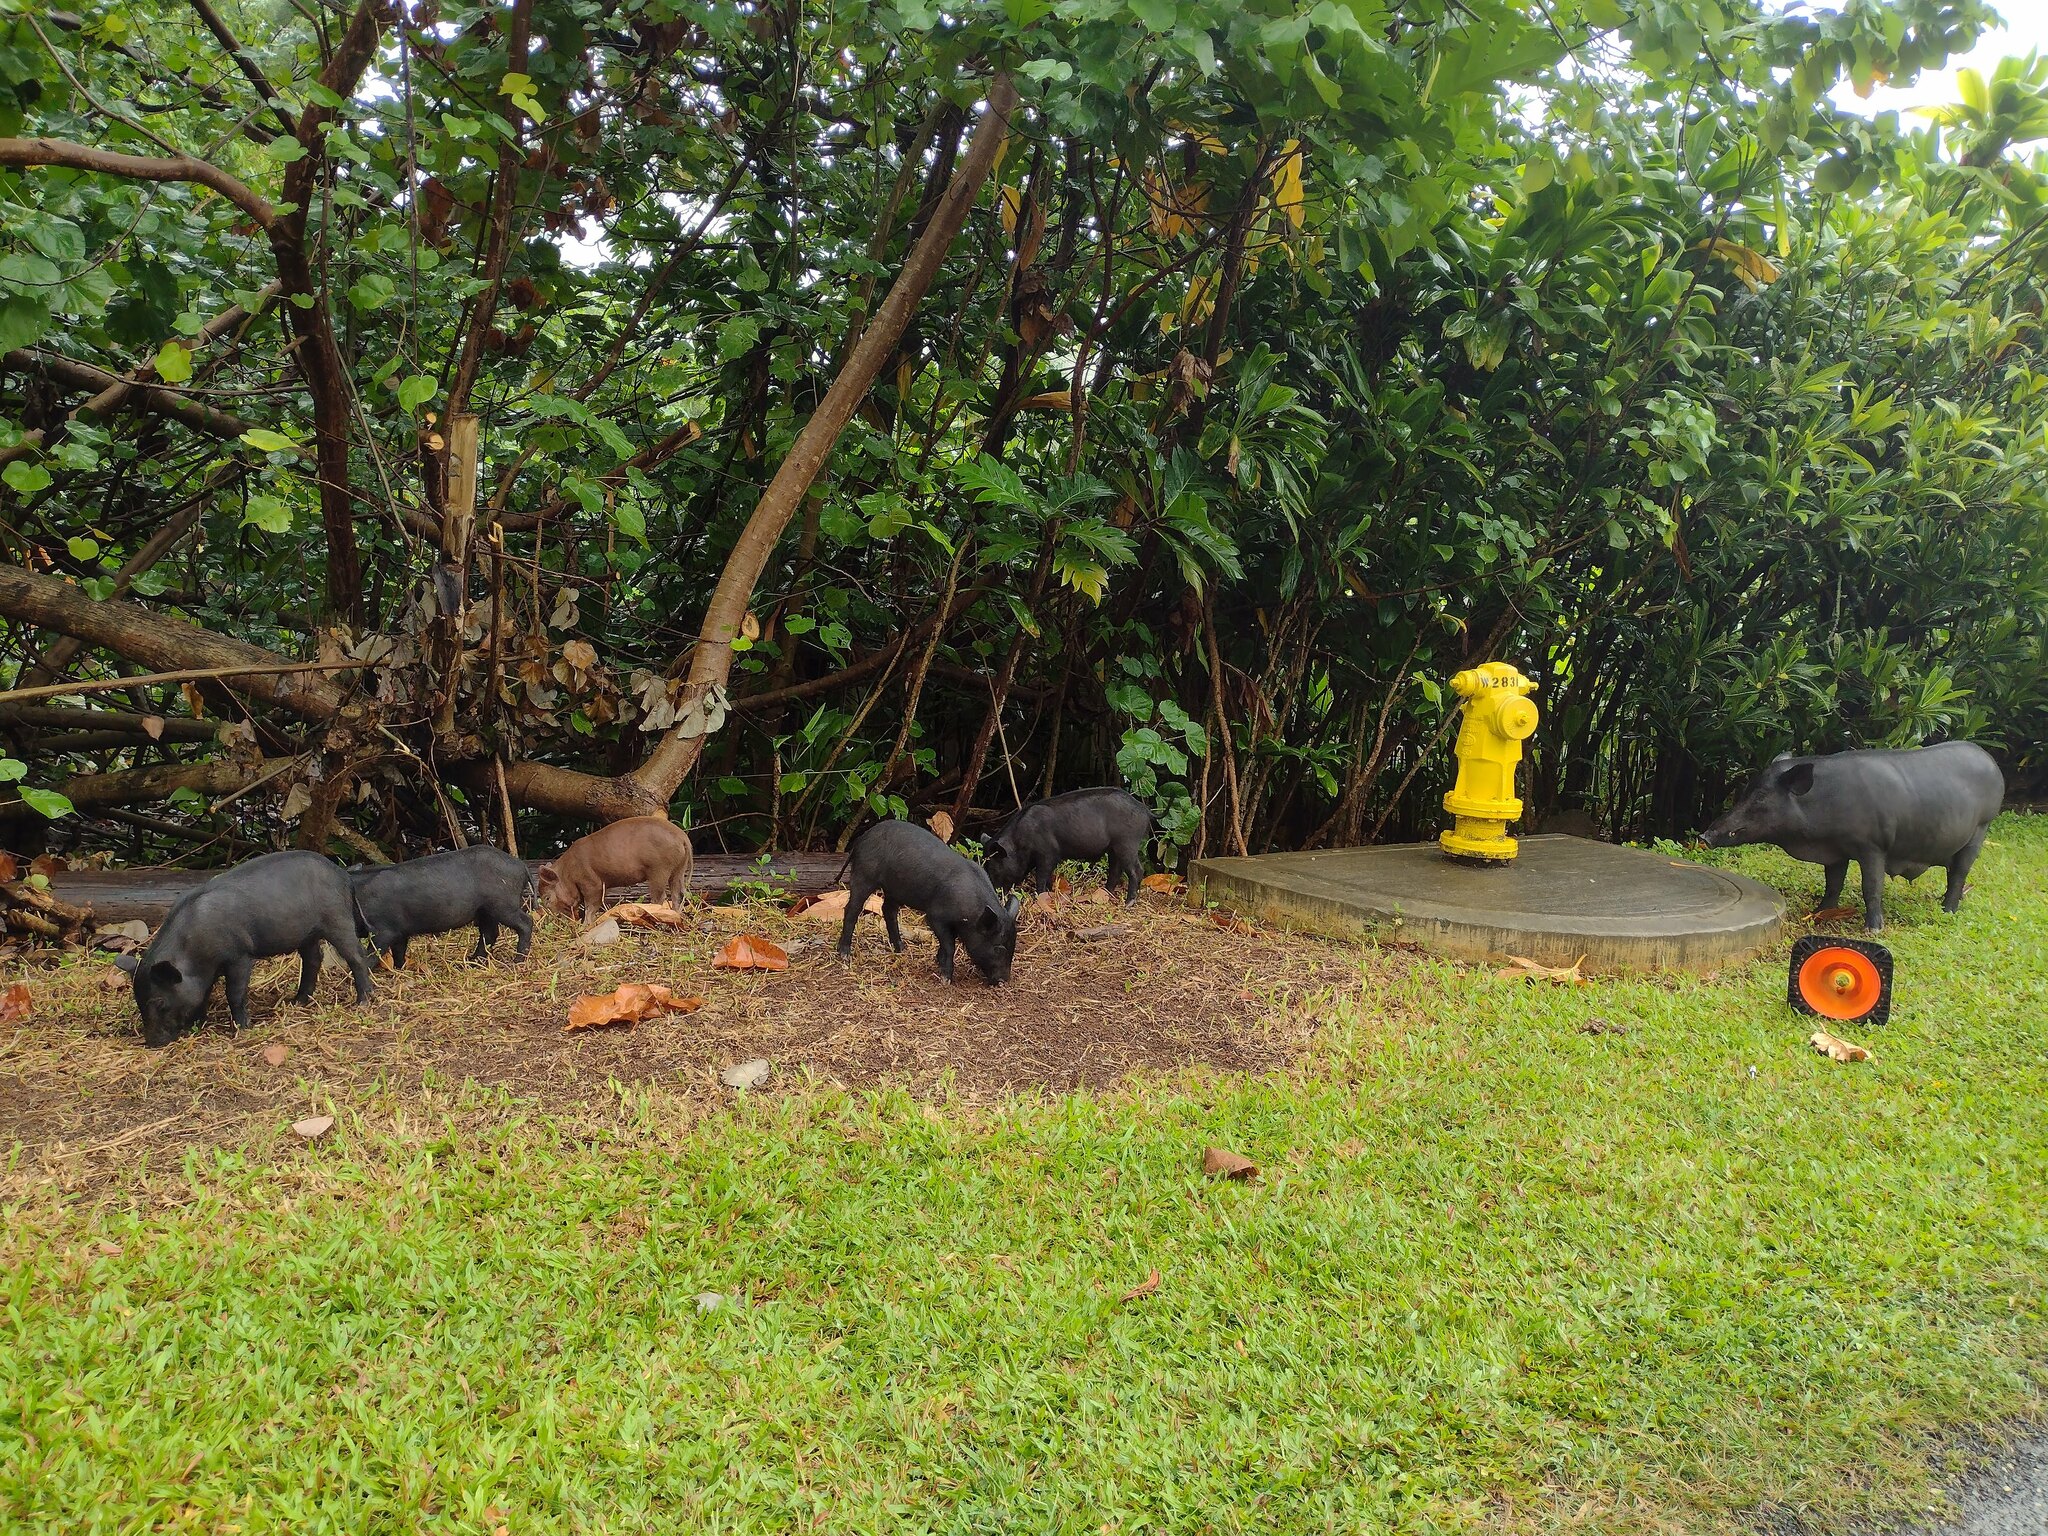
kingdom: Animalia
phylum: Chordata
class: Mammalia
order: Artiodactyla
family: Suidae
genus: Sus
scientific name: Sus scrofa
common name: Wild boar
